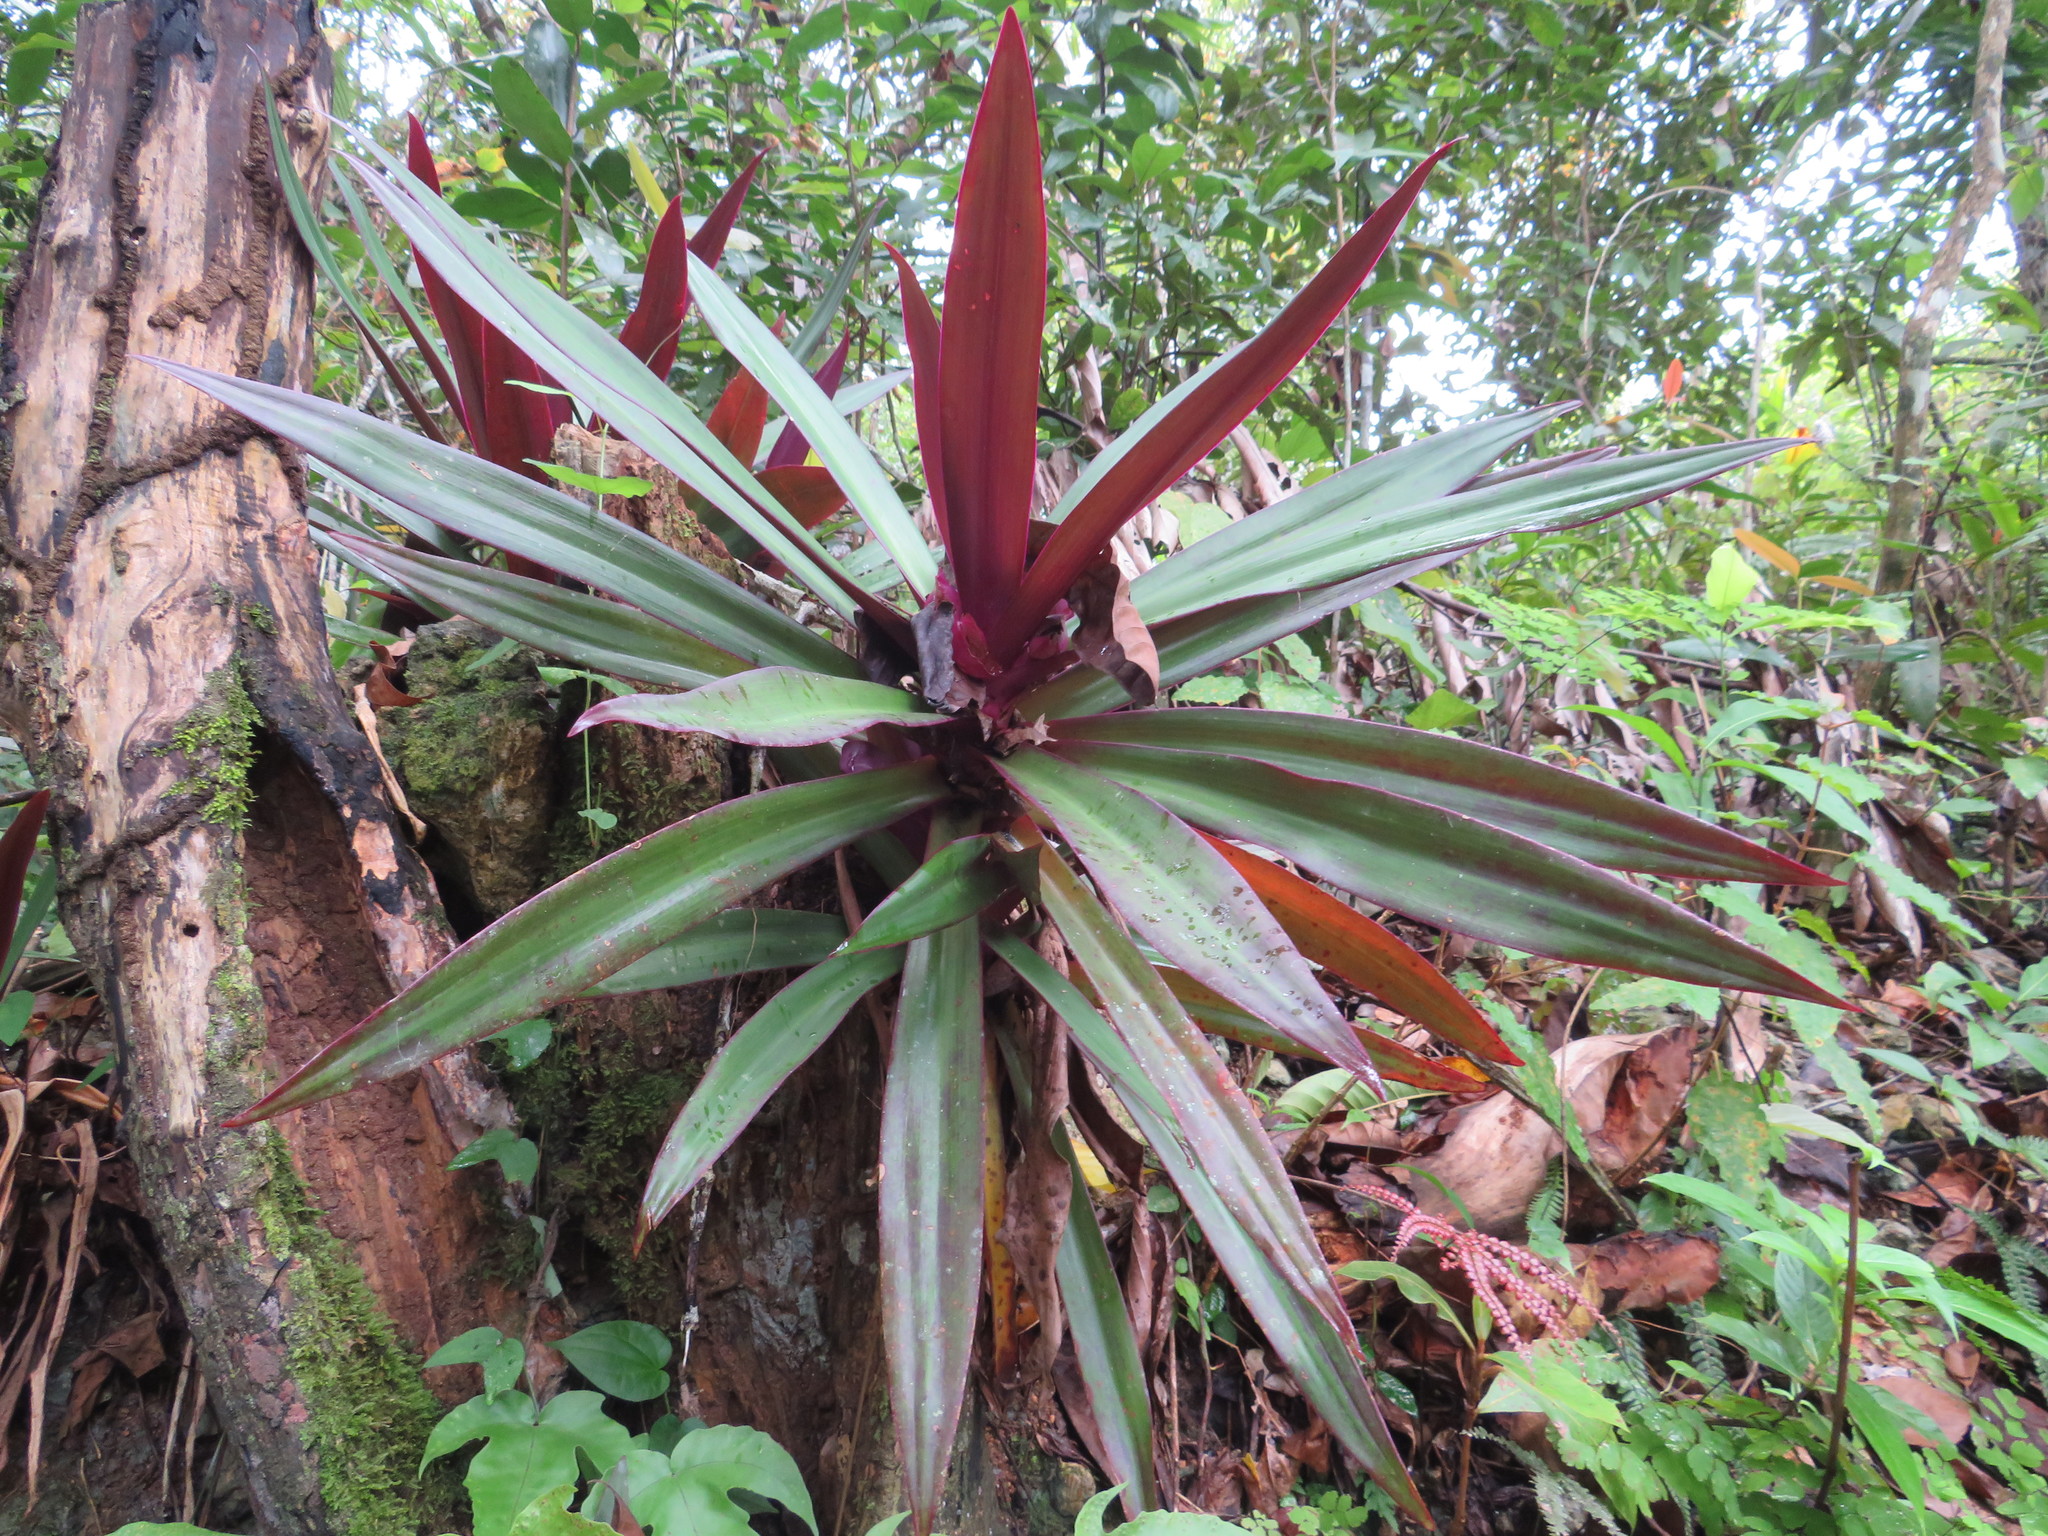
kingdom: Plantae
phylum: Tracheophyta
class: Liliopsida
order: Commelinales
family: Commelinaceae
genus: Tradescantia
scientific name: Tradescantia spathacea
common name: Boatlily
